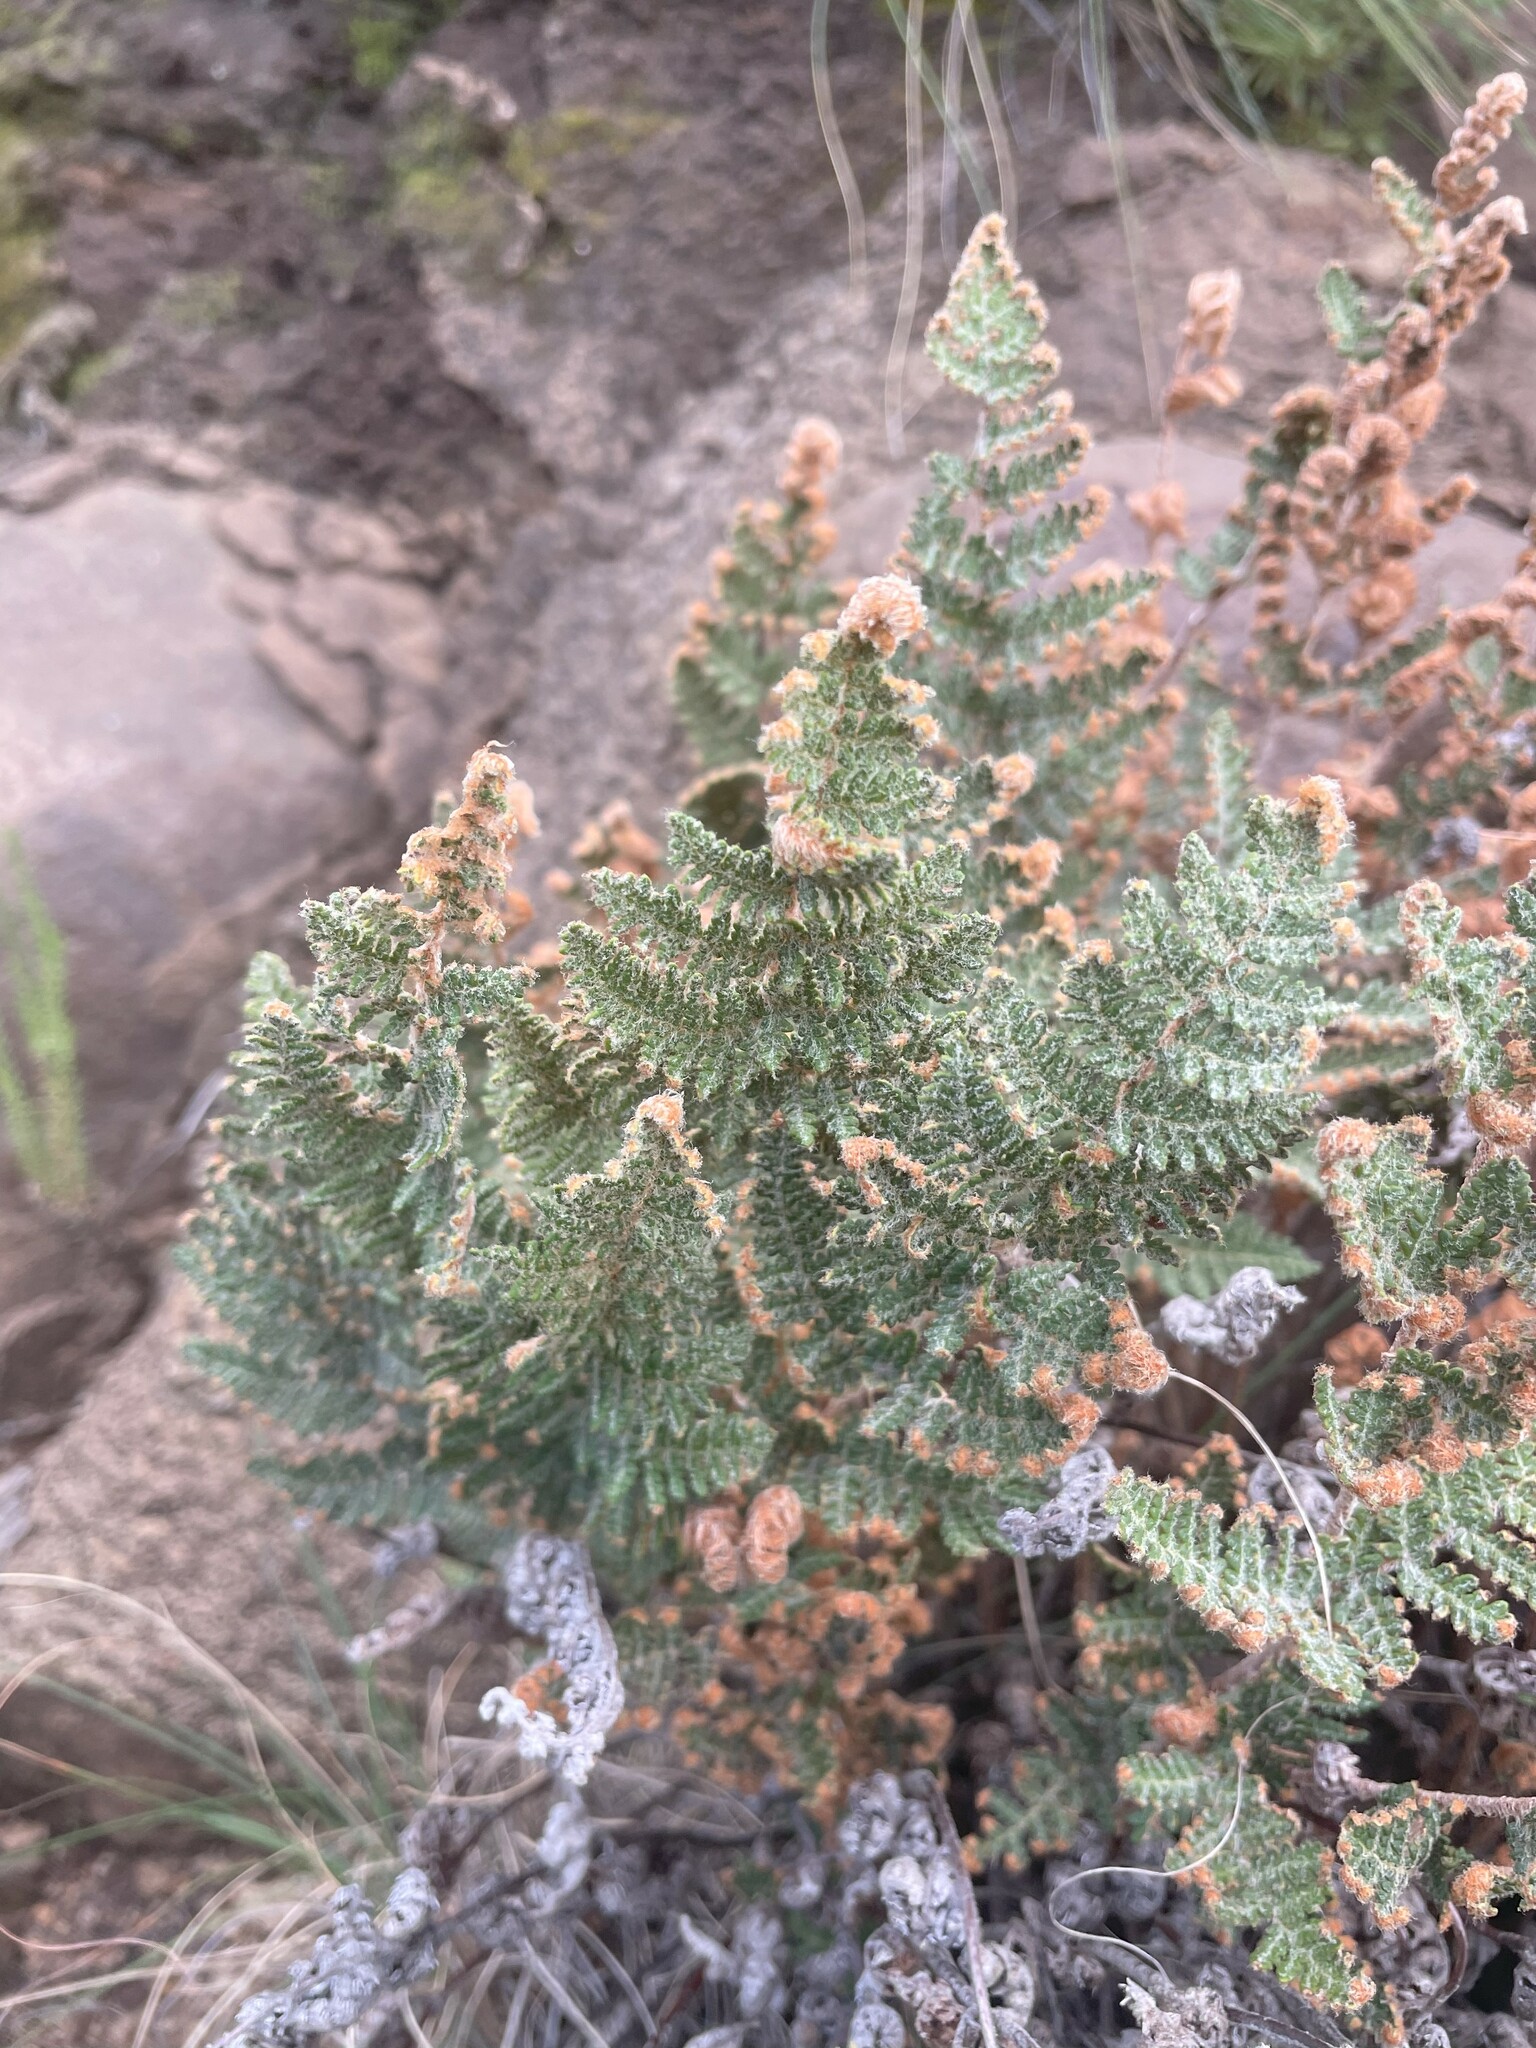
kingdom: Plantae
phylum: Tracheophyta
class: Polypodiopsida
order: Polypodiales
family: Pteridaceae
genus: Cheilanthes
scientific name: Cheilanthes eckloniana
